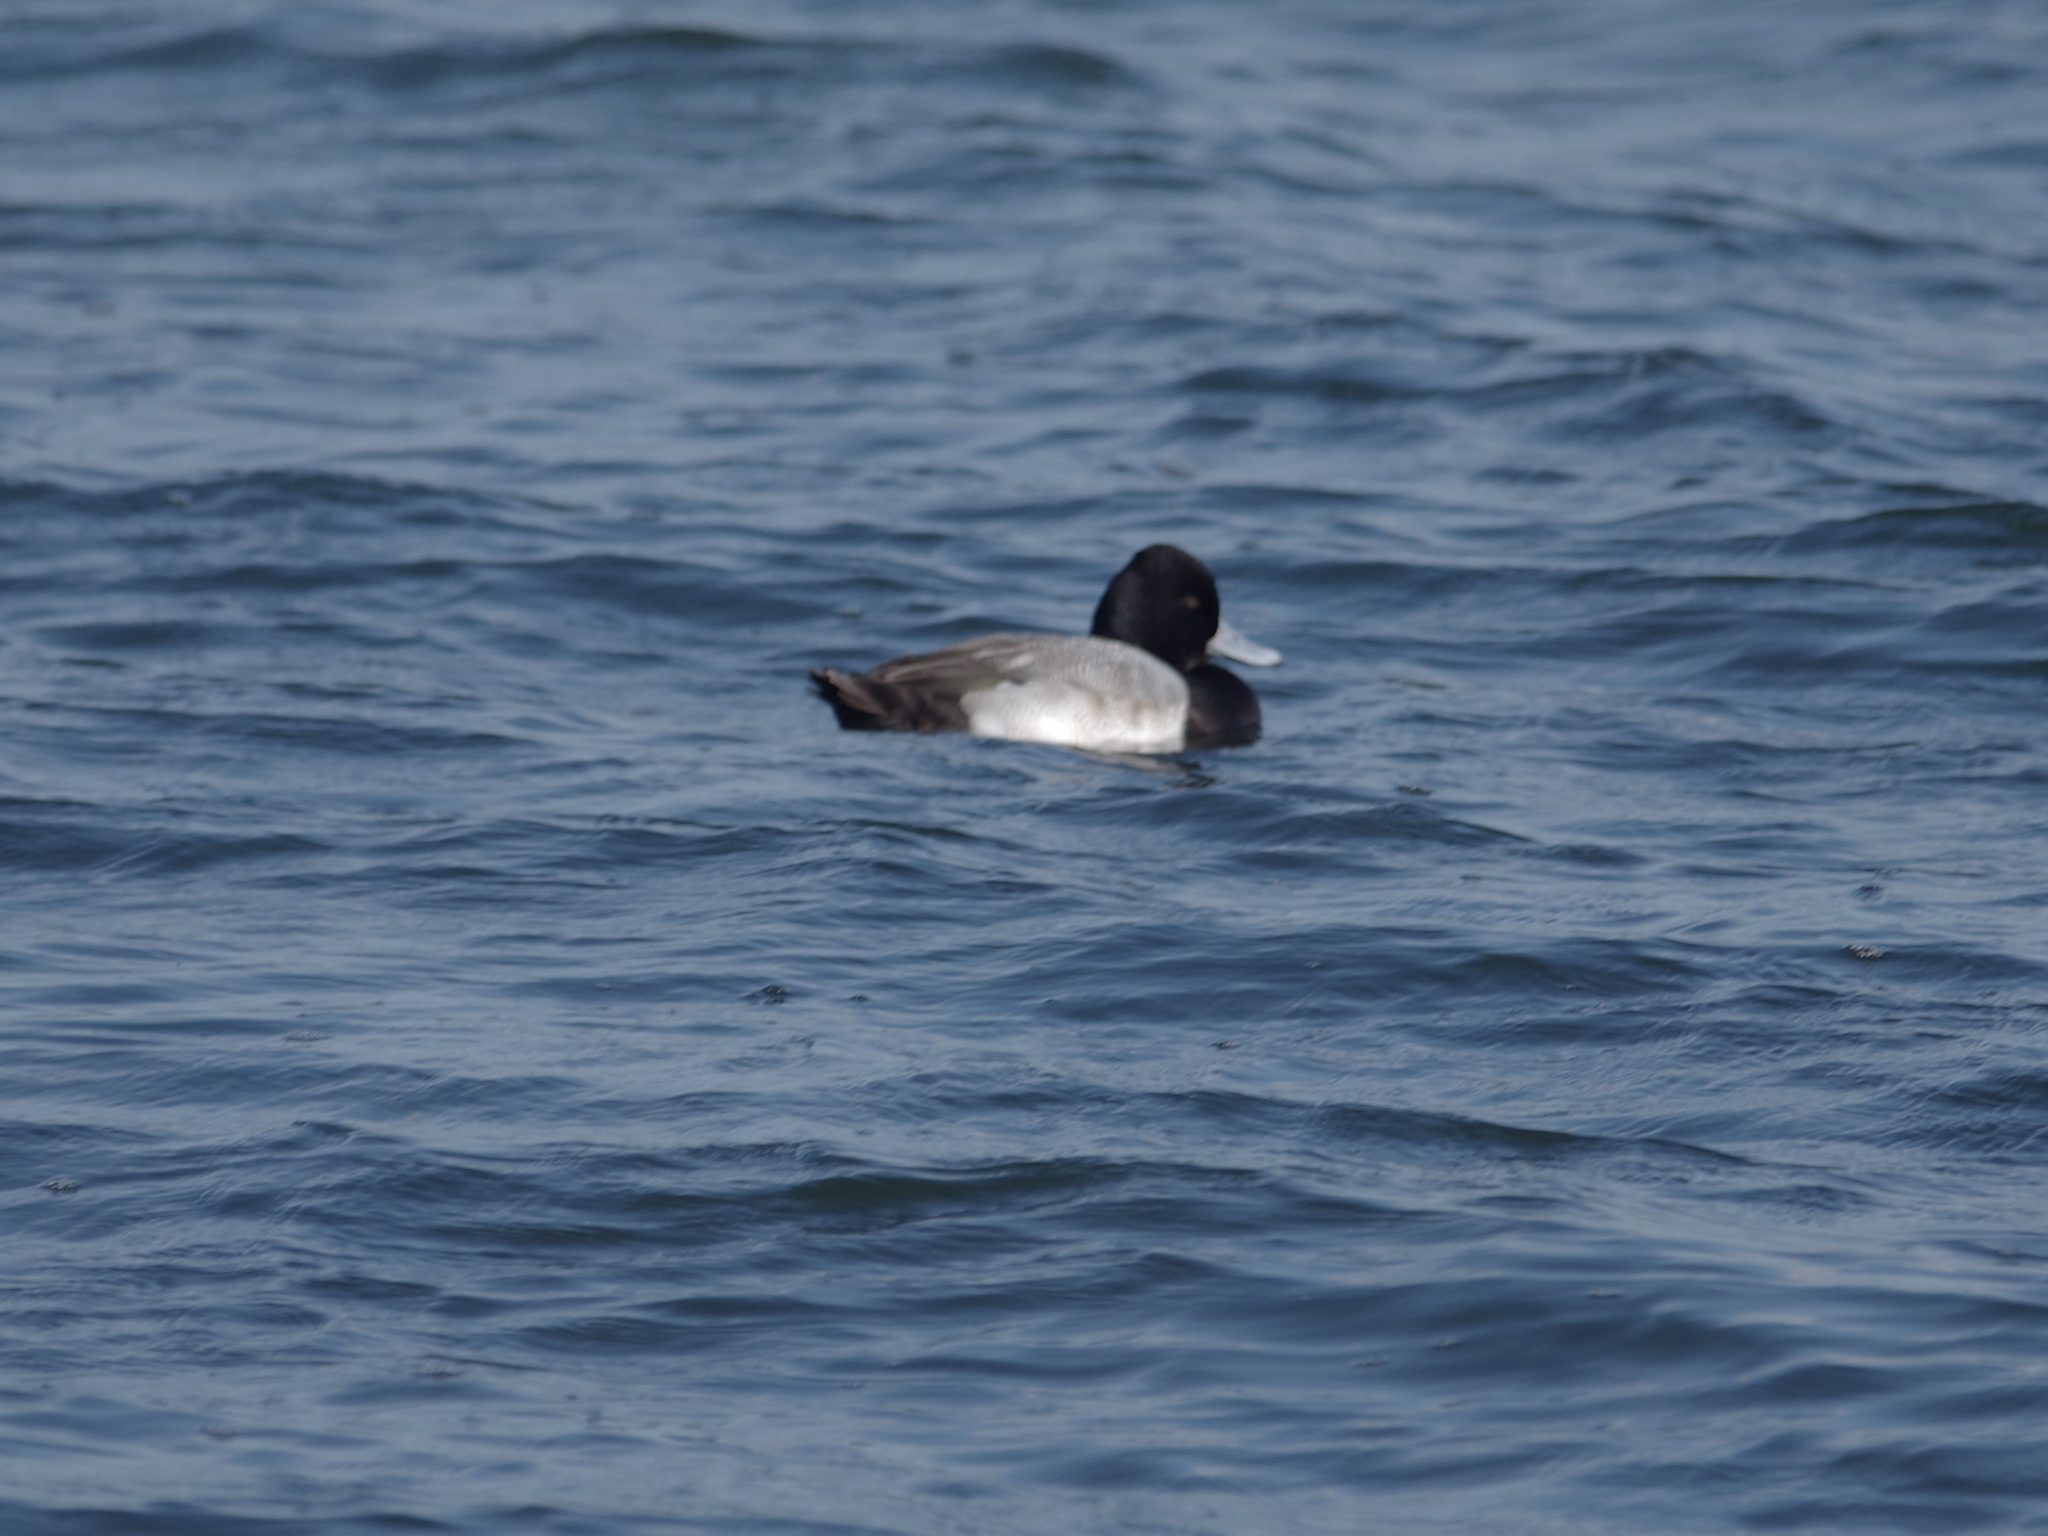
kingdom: Animalia
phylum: Chordata
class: Aves
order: Anseriformes
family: Anatidae
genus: Aythya
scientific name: Aythya affinis
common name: Lesser scaup
